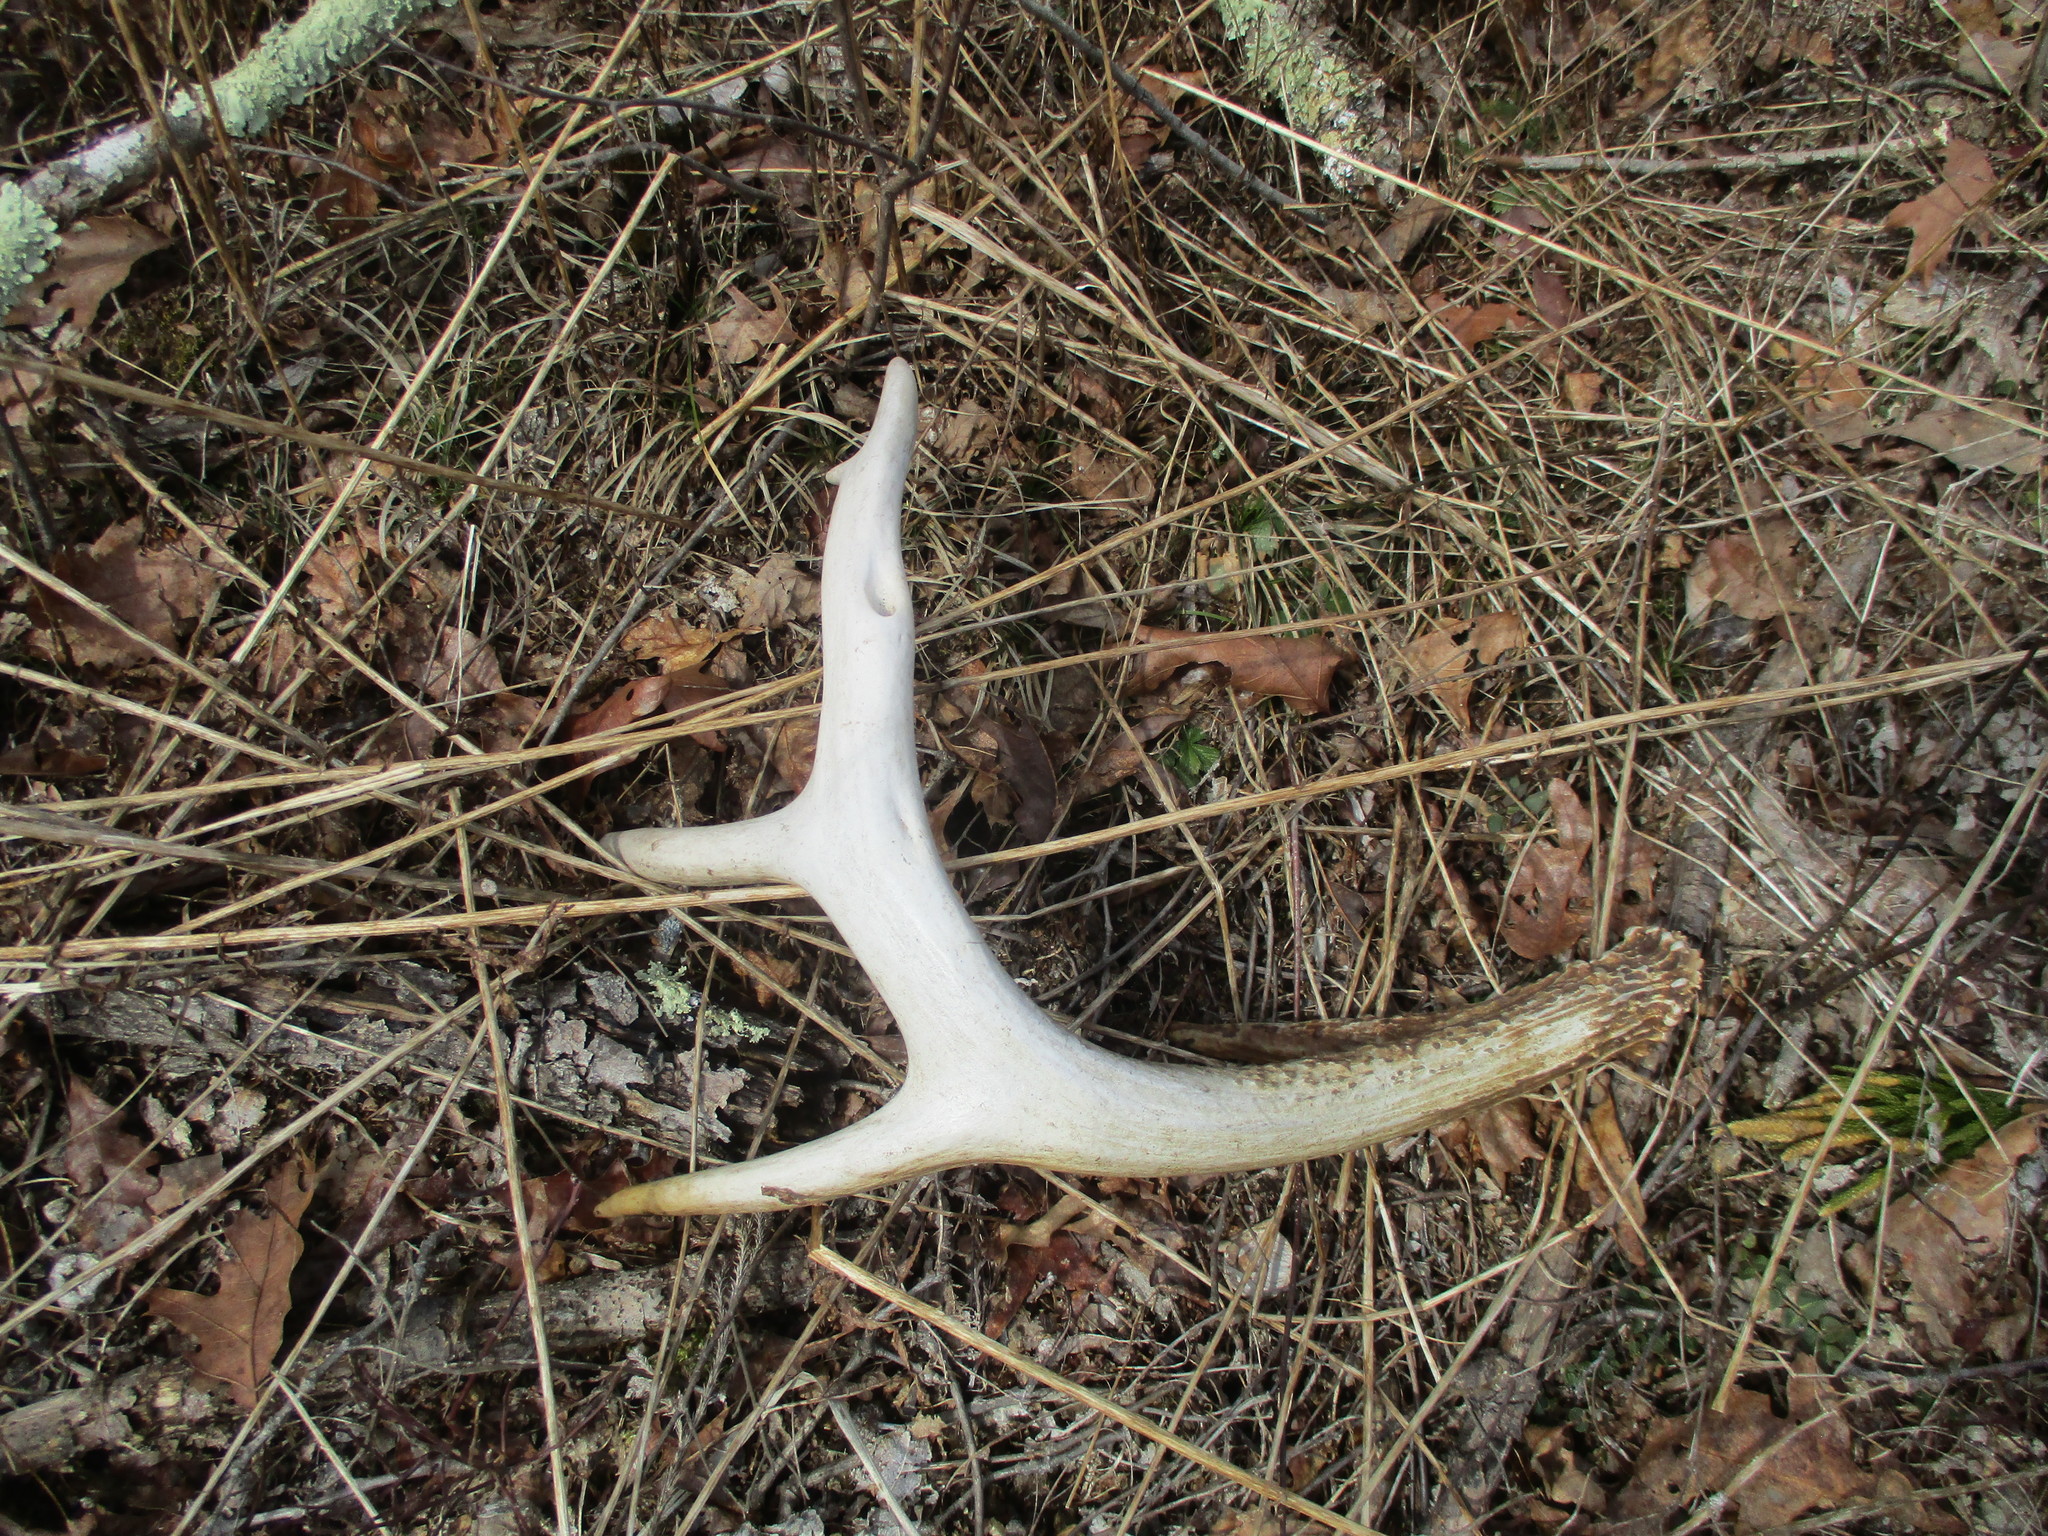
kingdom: Animalia
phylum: Chordata
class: Mammalia
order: Artiodactyla
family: Cervidae
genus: Odocoileus
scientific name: Odocoileus virginianus
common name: White-tailed deer
